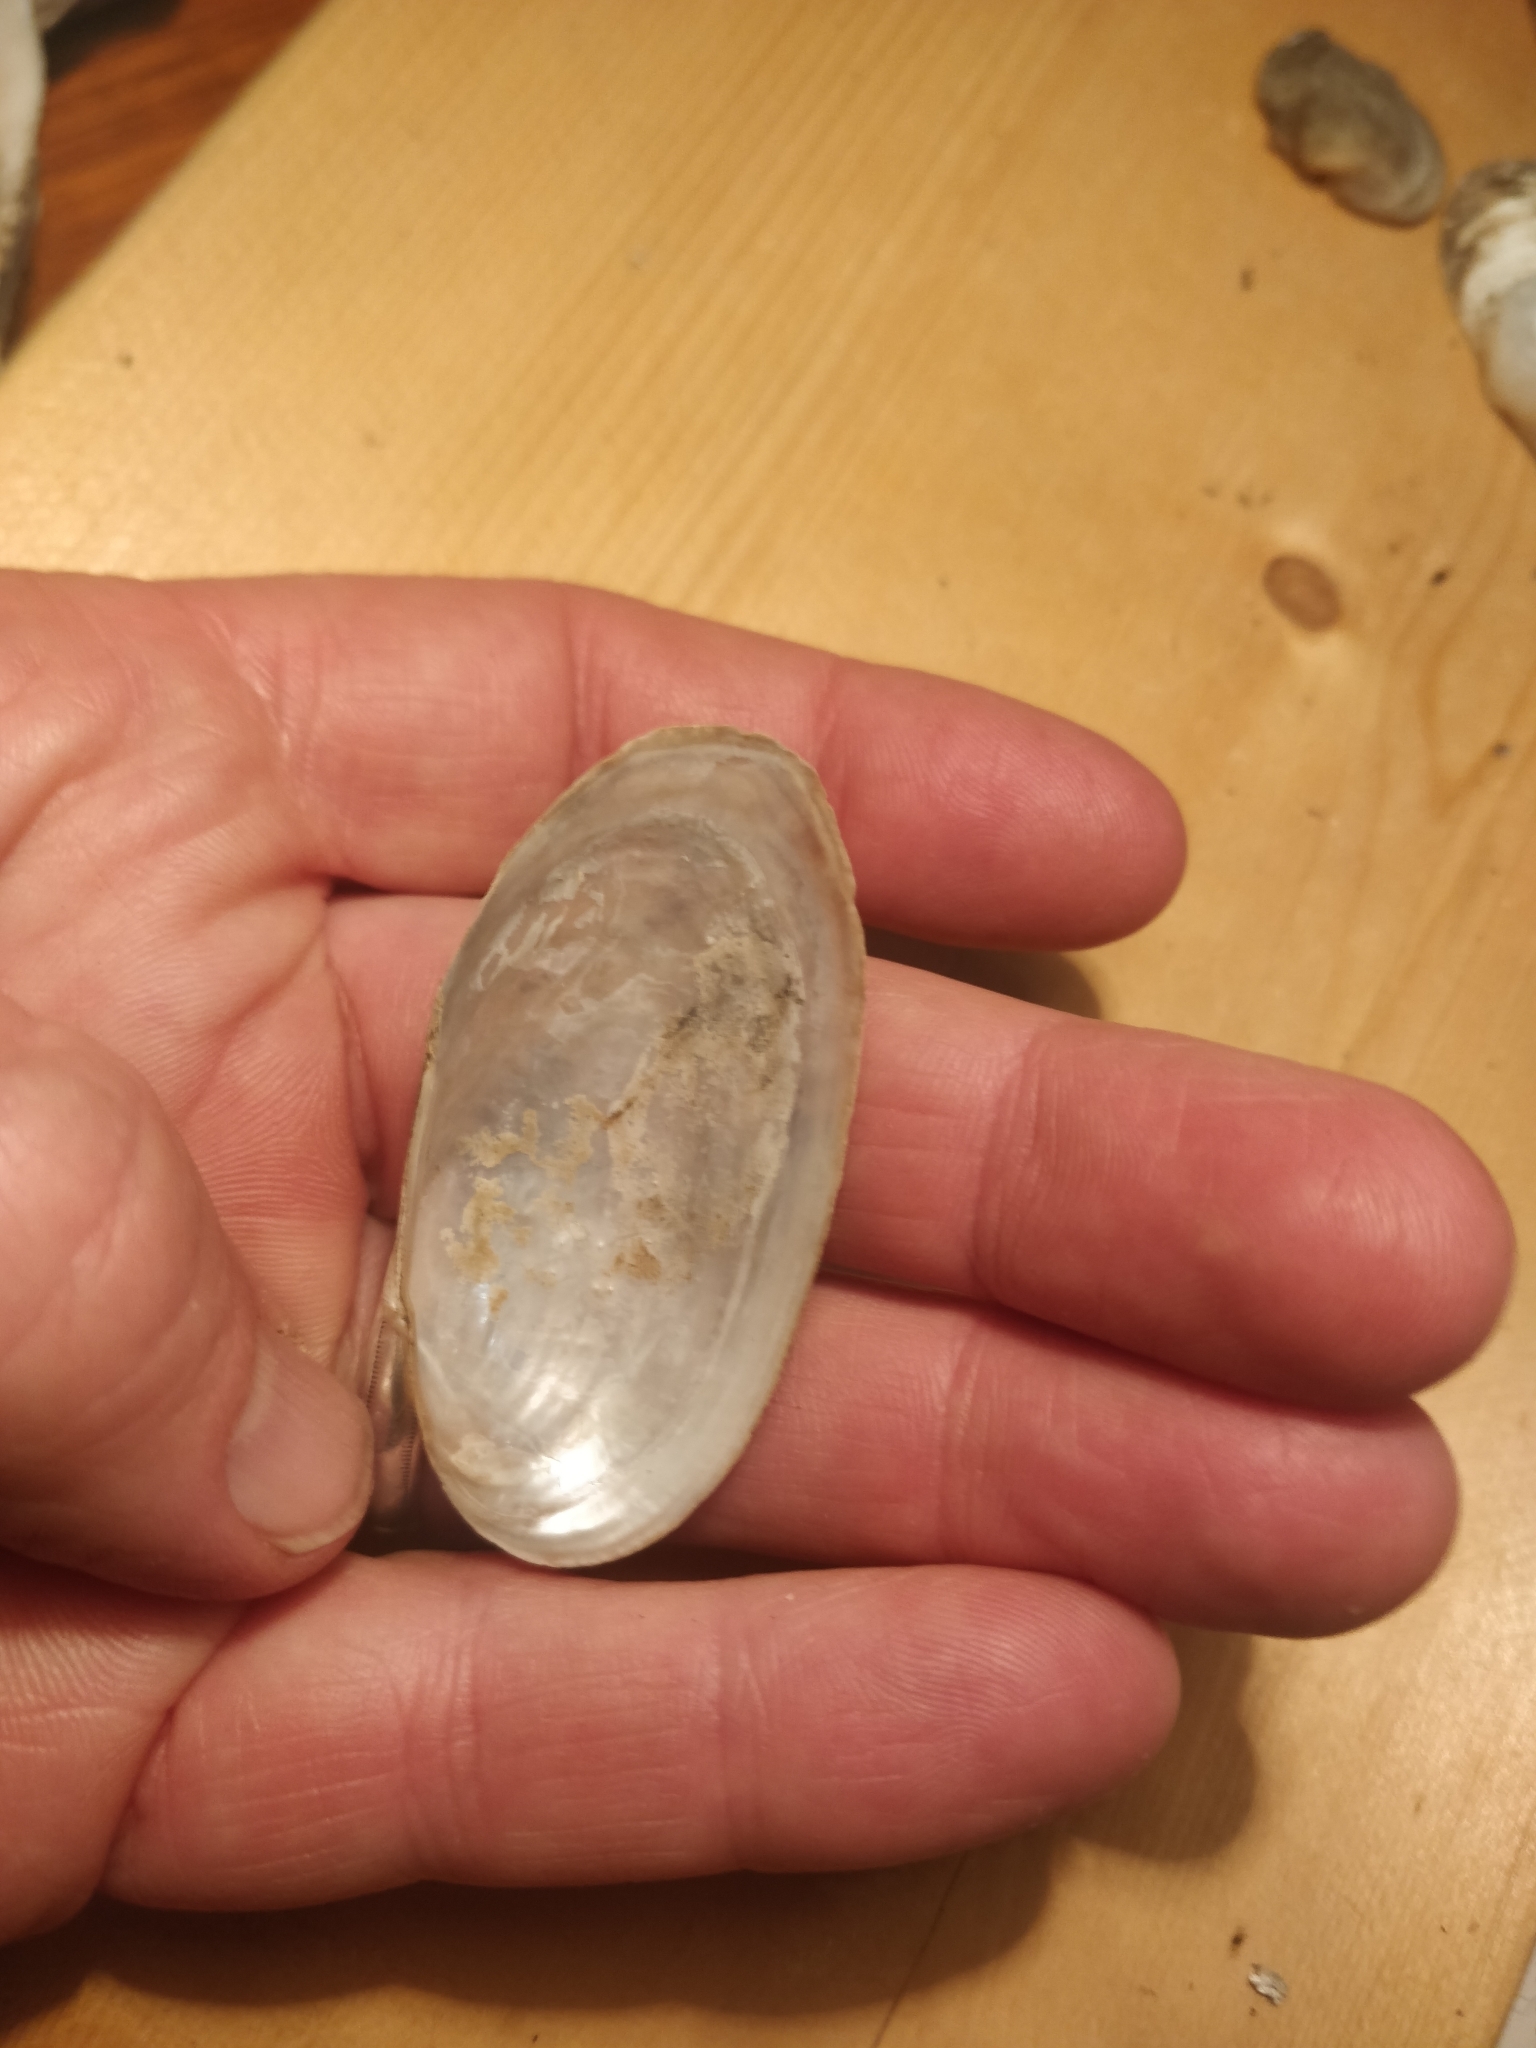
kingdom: Animalia
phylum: Mollusca
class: Bivalvia
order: Unionida
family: Unionidae
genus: Anodontoides
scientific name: Anodontoides ferussacianus
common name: Cylindrical papershell
